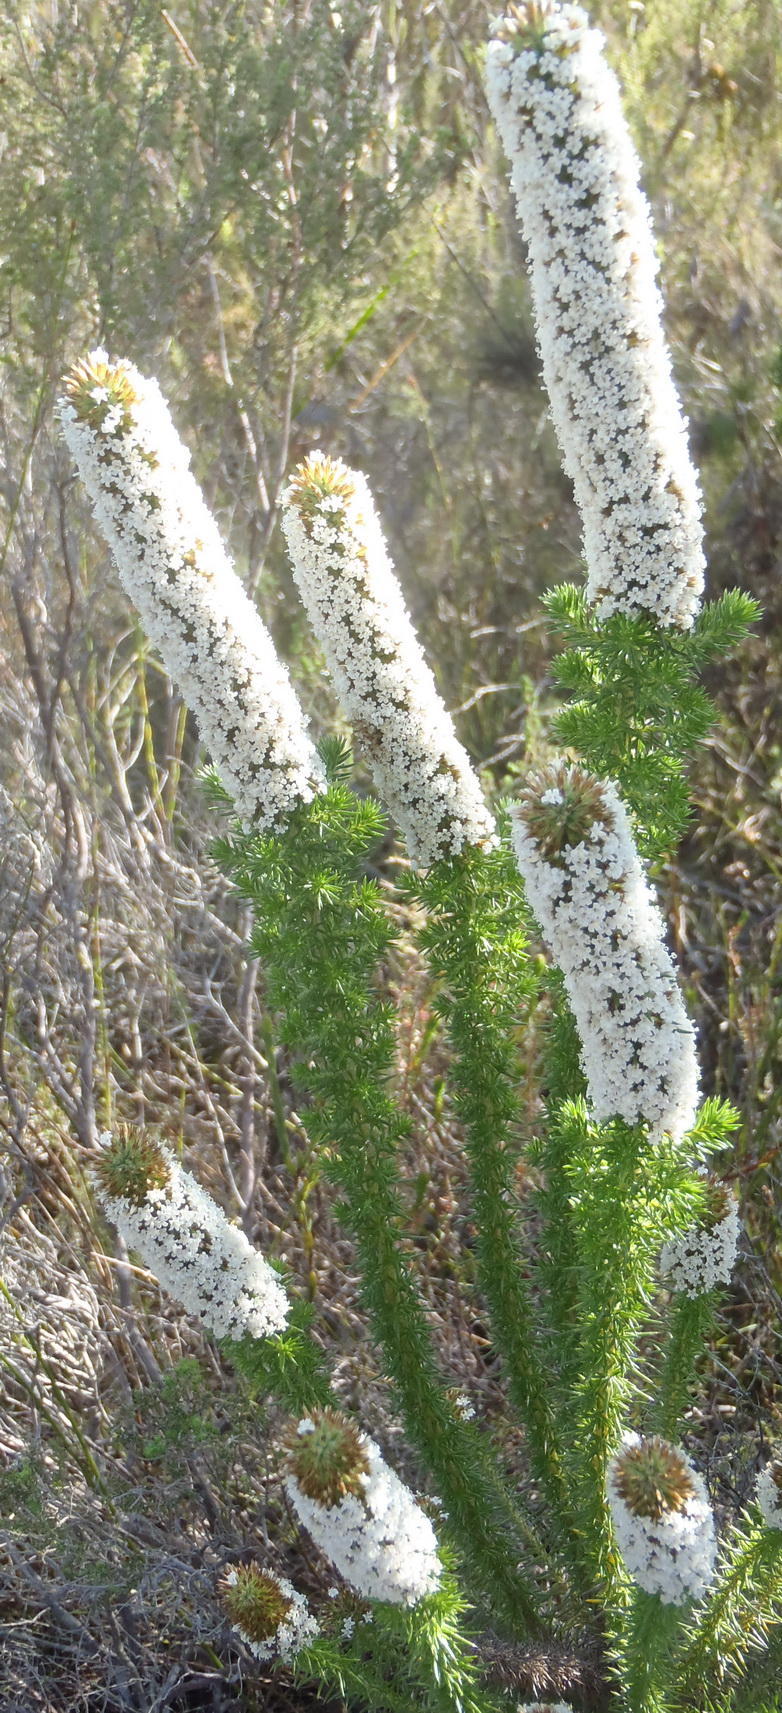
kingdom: Plantae
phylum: Tracheophyta
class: Magnoliopsida
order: Asterales
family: Asteraceae
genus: Stoebe
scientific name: Stoebe alopecuroides
